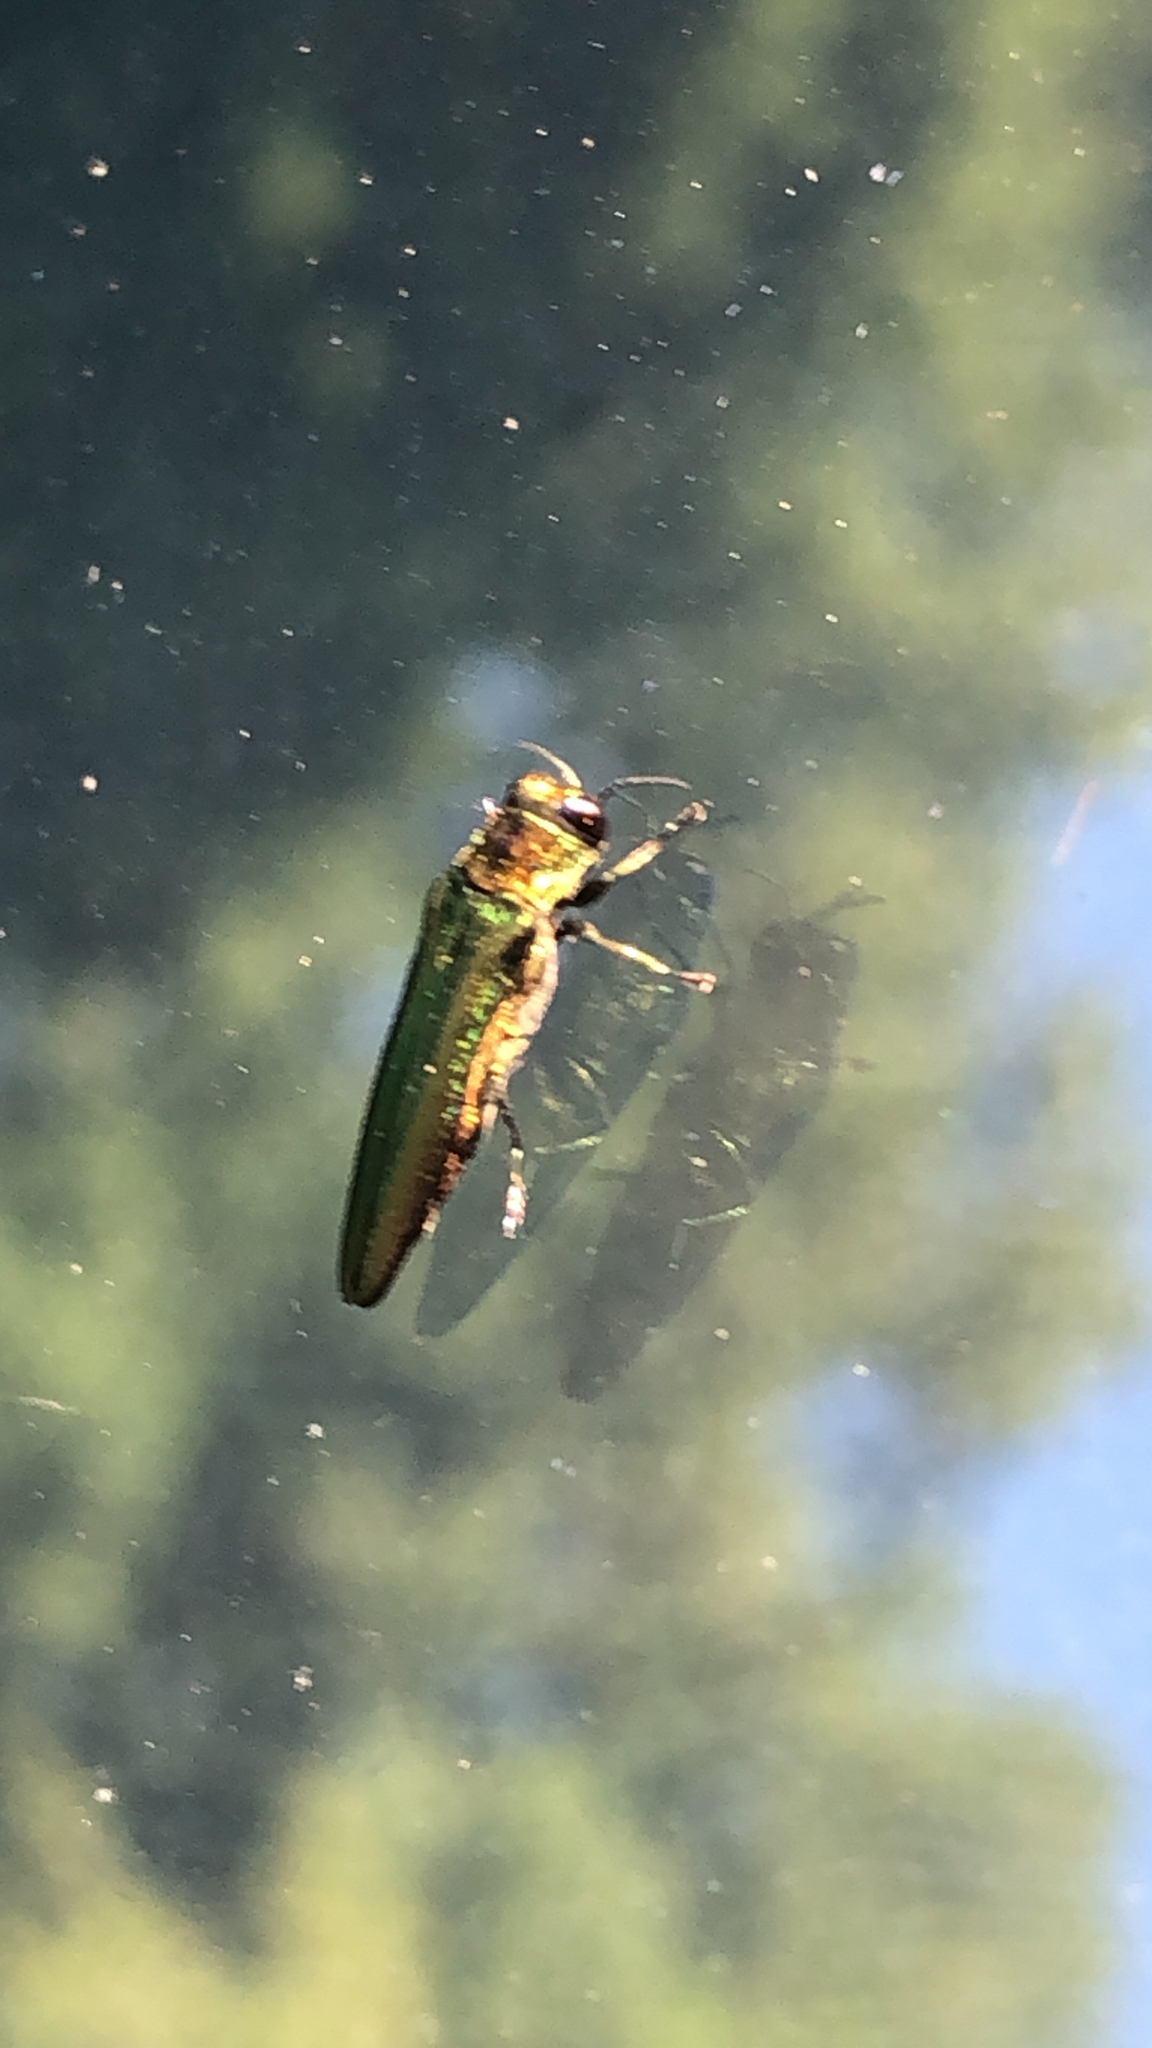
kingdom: Animalia
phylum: Arthropoda
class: Insecta
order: Coleoptera
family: Buprestidae
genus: Agrilus
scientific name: Agrilus planipennis
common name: Emerald ash borer
